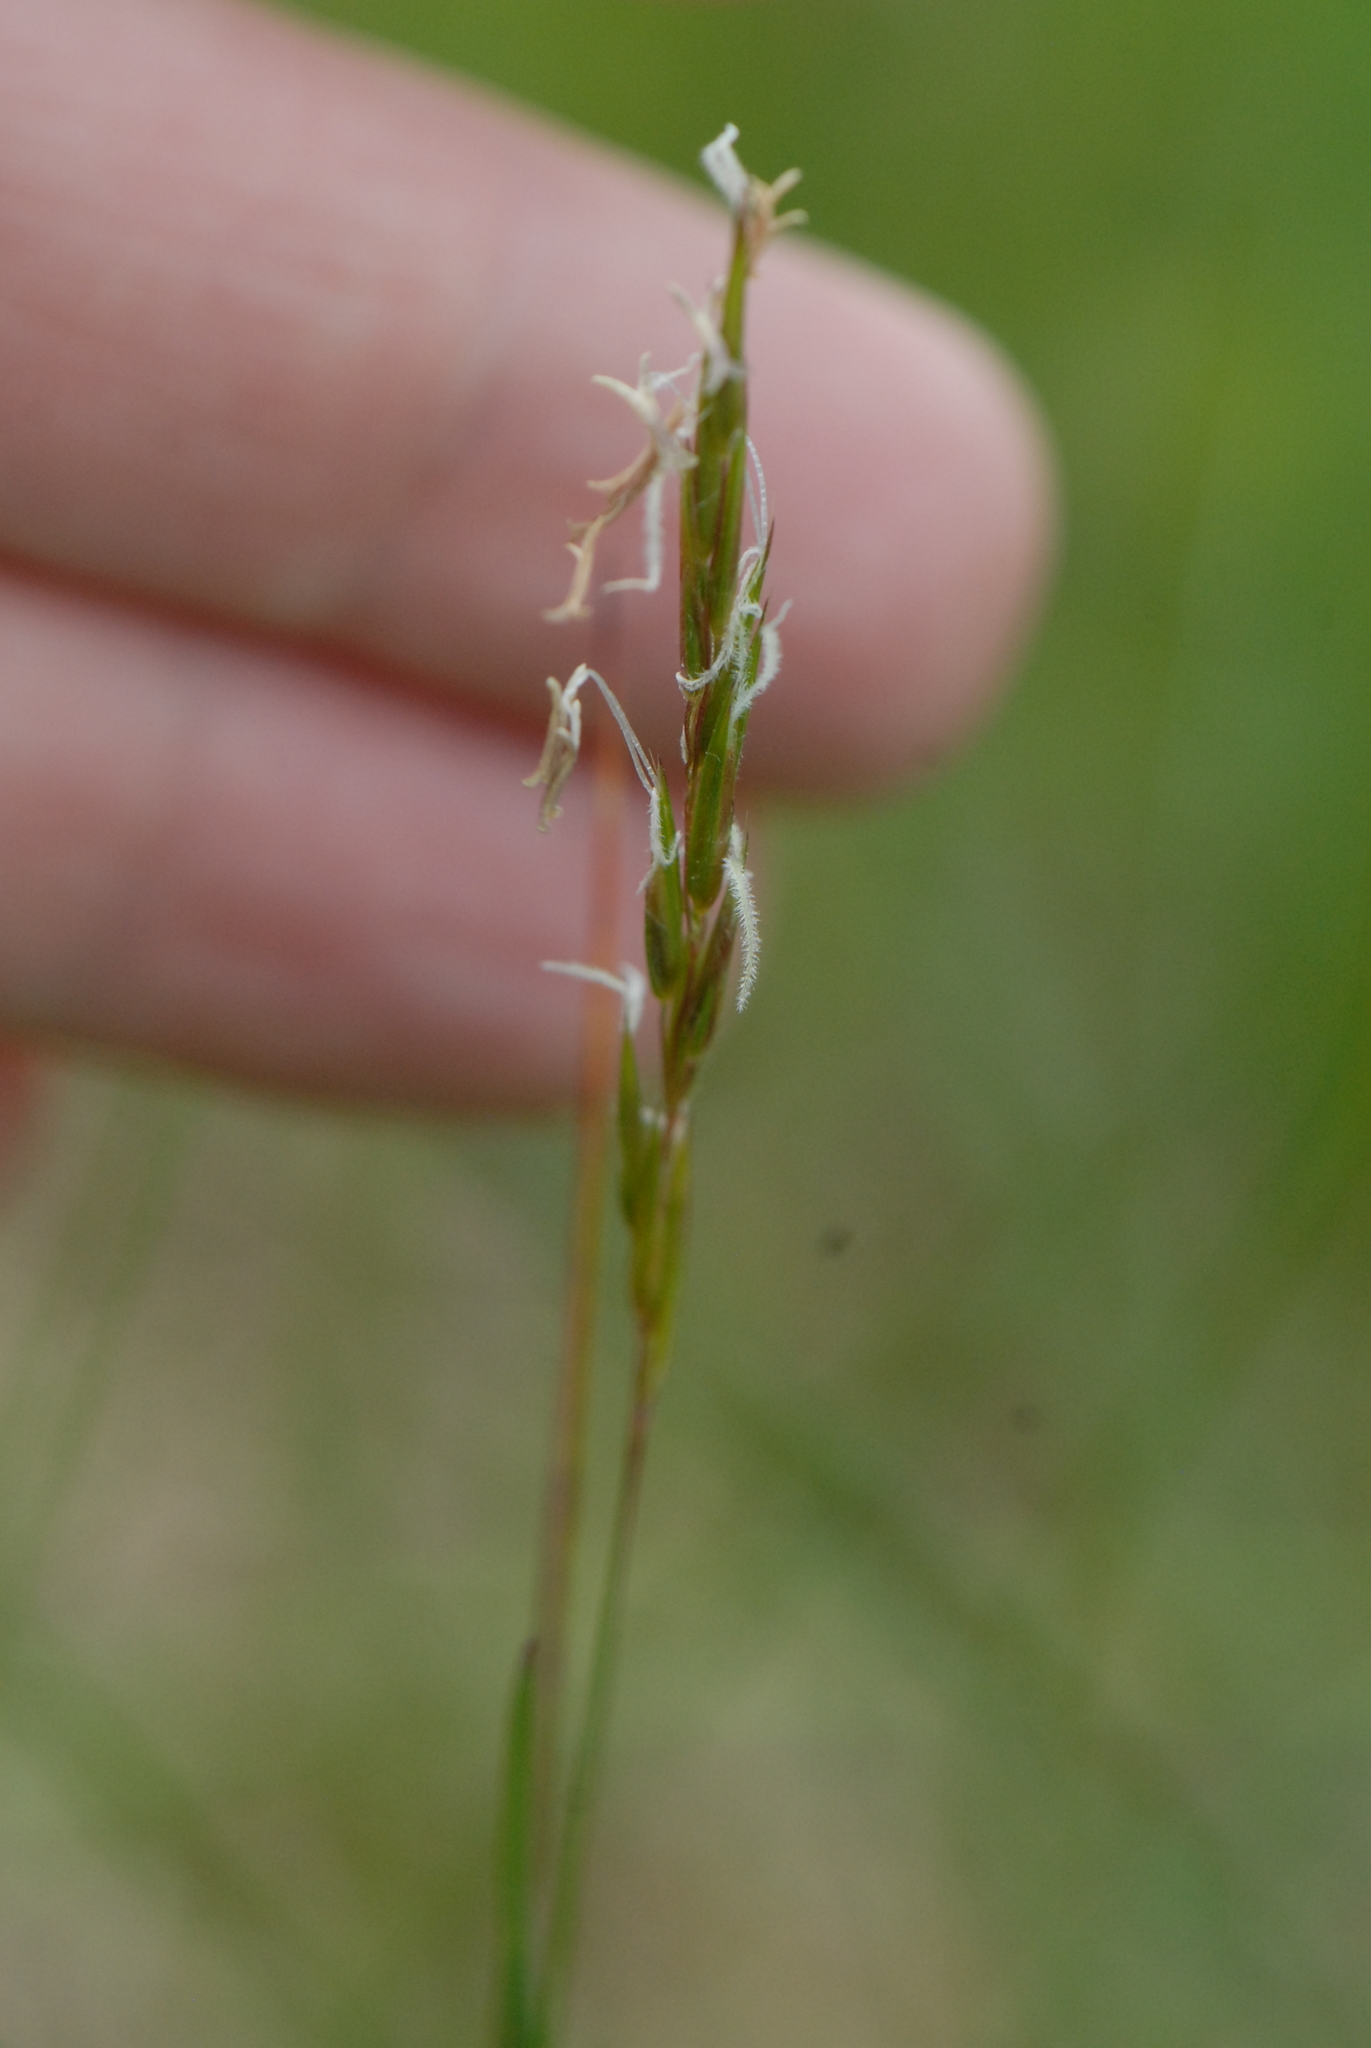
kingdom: Plantae
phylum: Tracheophyta
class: Liliopsida
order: Poales
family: Poaceae
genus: Anthoxanthum
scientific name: Anthoxanthum odoratum
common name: Sweet vernalgrass
